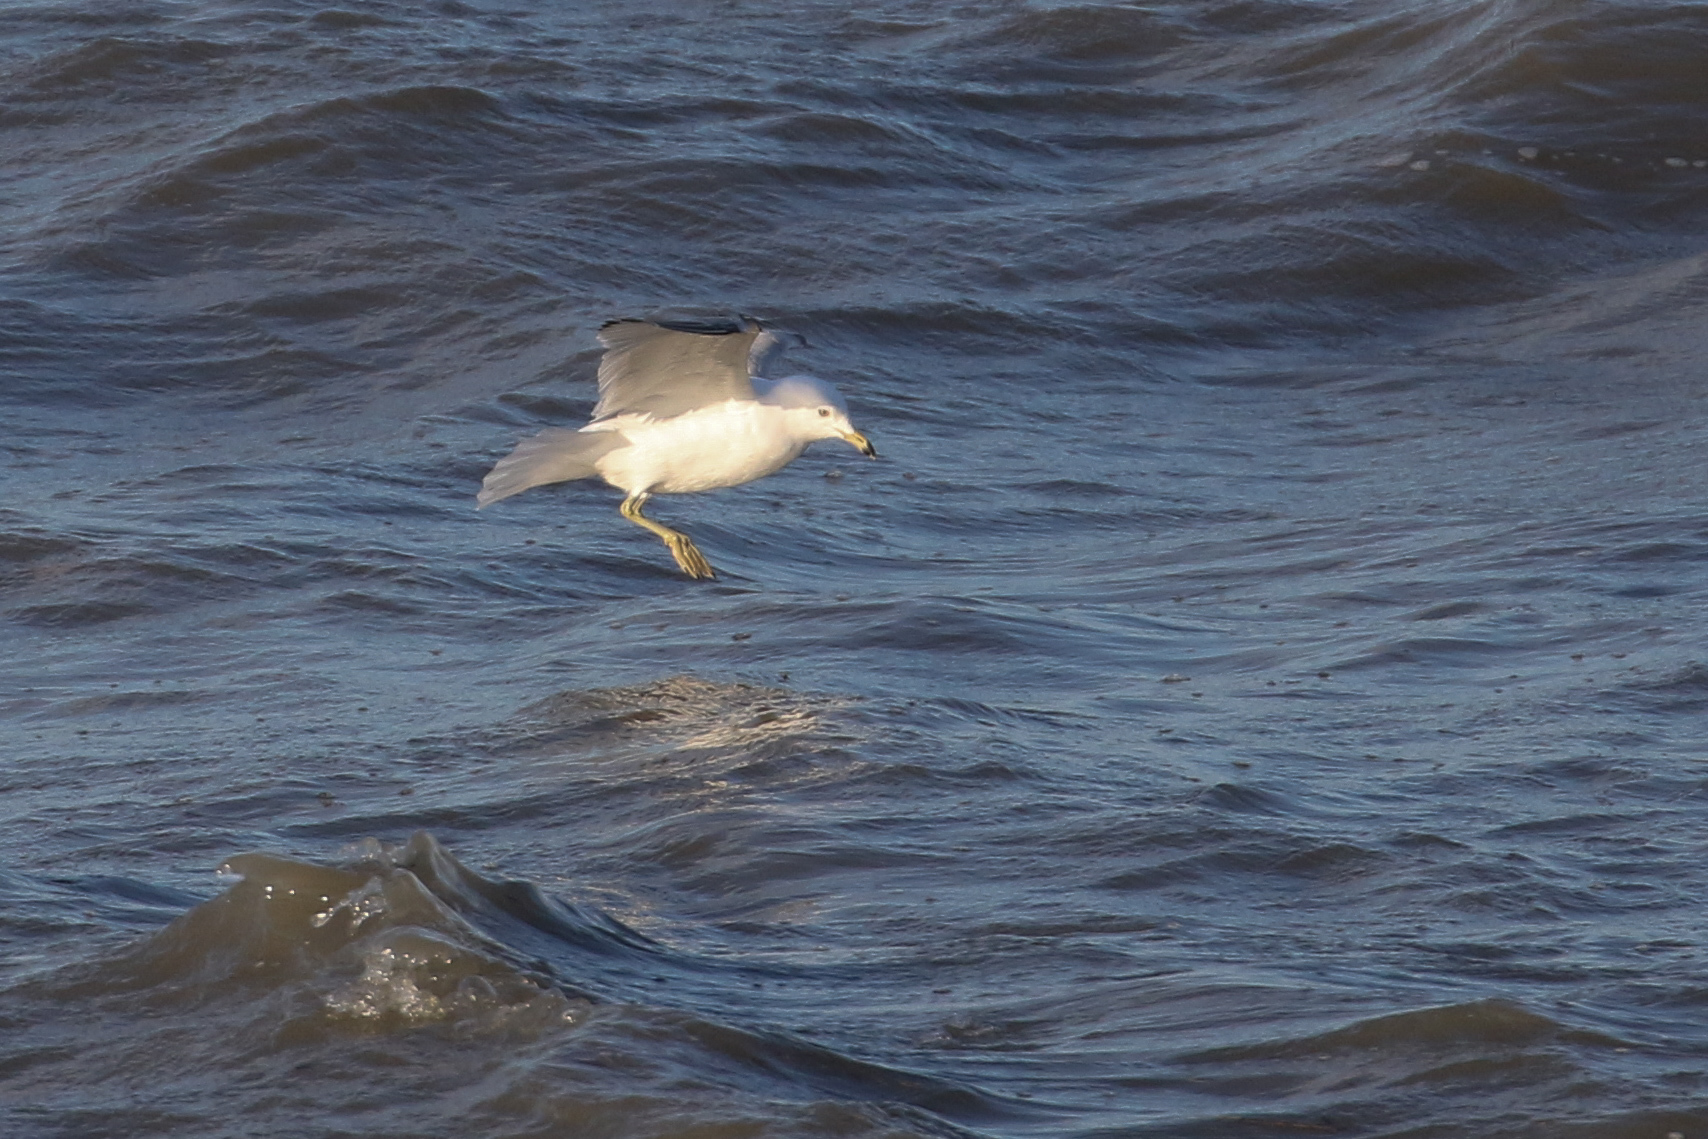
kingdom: Animalia
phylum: Chordata
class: Aves
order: Charadriiformes
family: Laridae
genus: Larus
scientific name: Larus delawarensis
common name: Ring-billed gull
